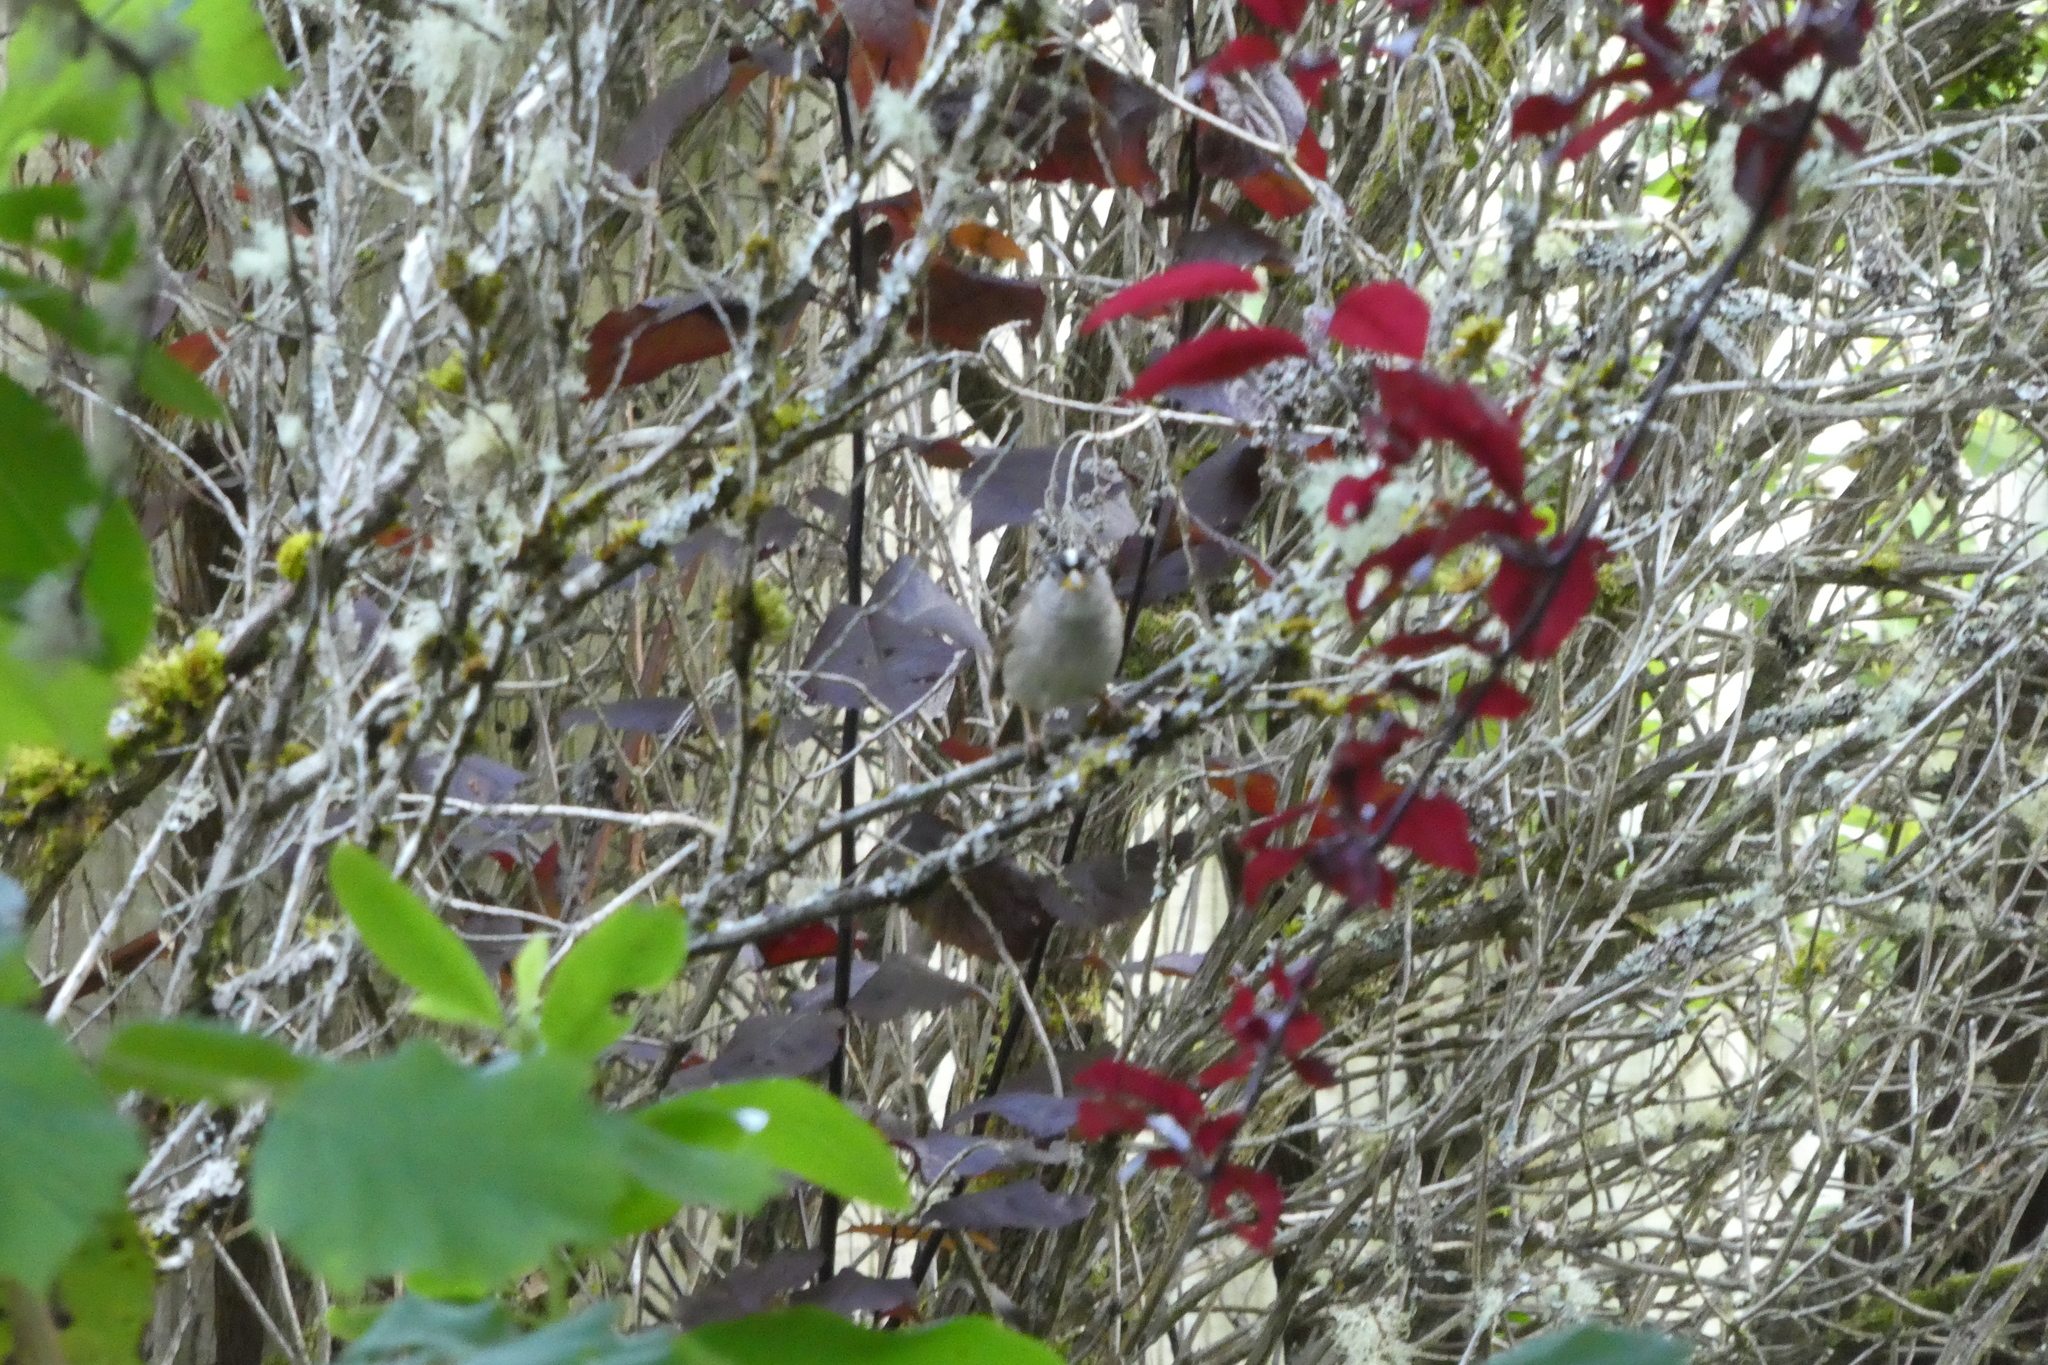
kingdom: Animalia
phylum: Chordata
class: Aves
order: Passeriformes
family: Passerellidae
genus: Zonotrichia
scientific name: Zonotrichia leucophrys
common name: White-crowned sparrow
